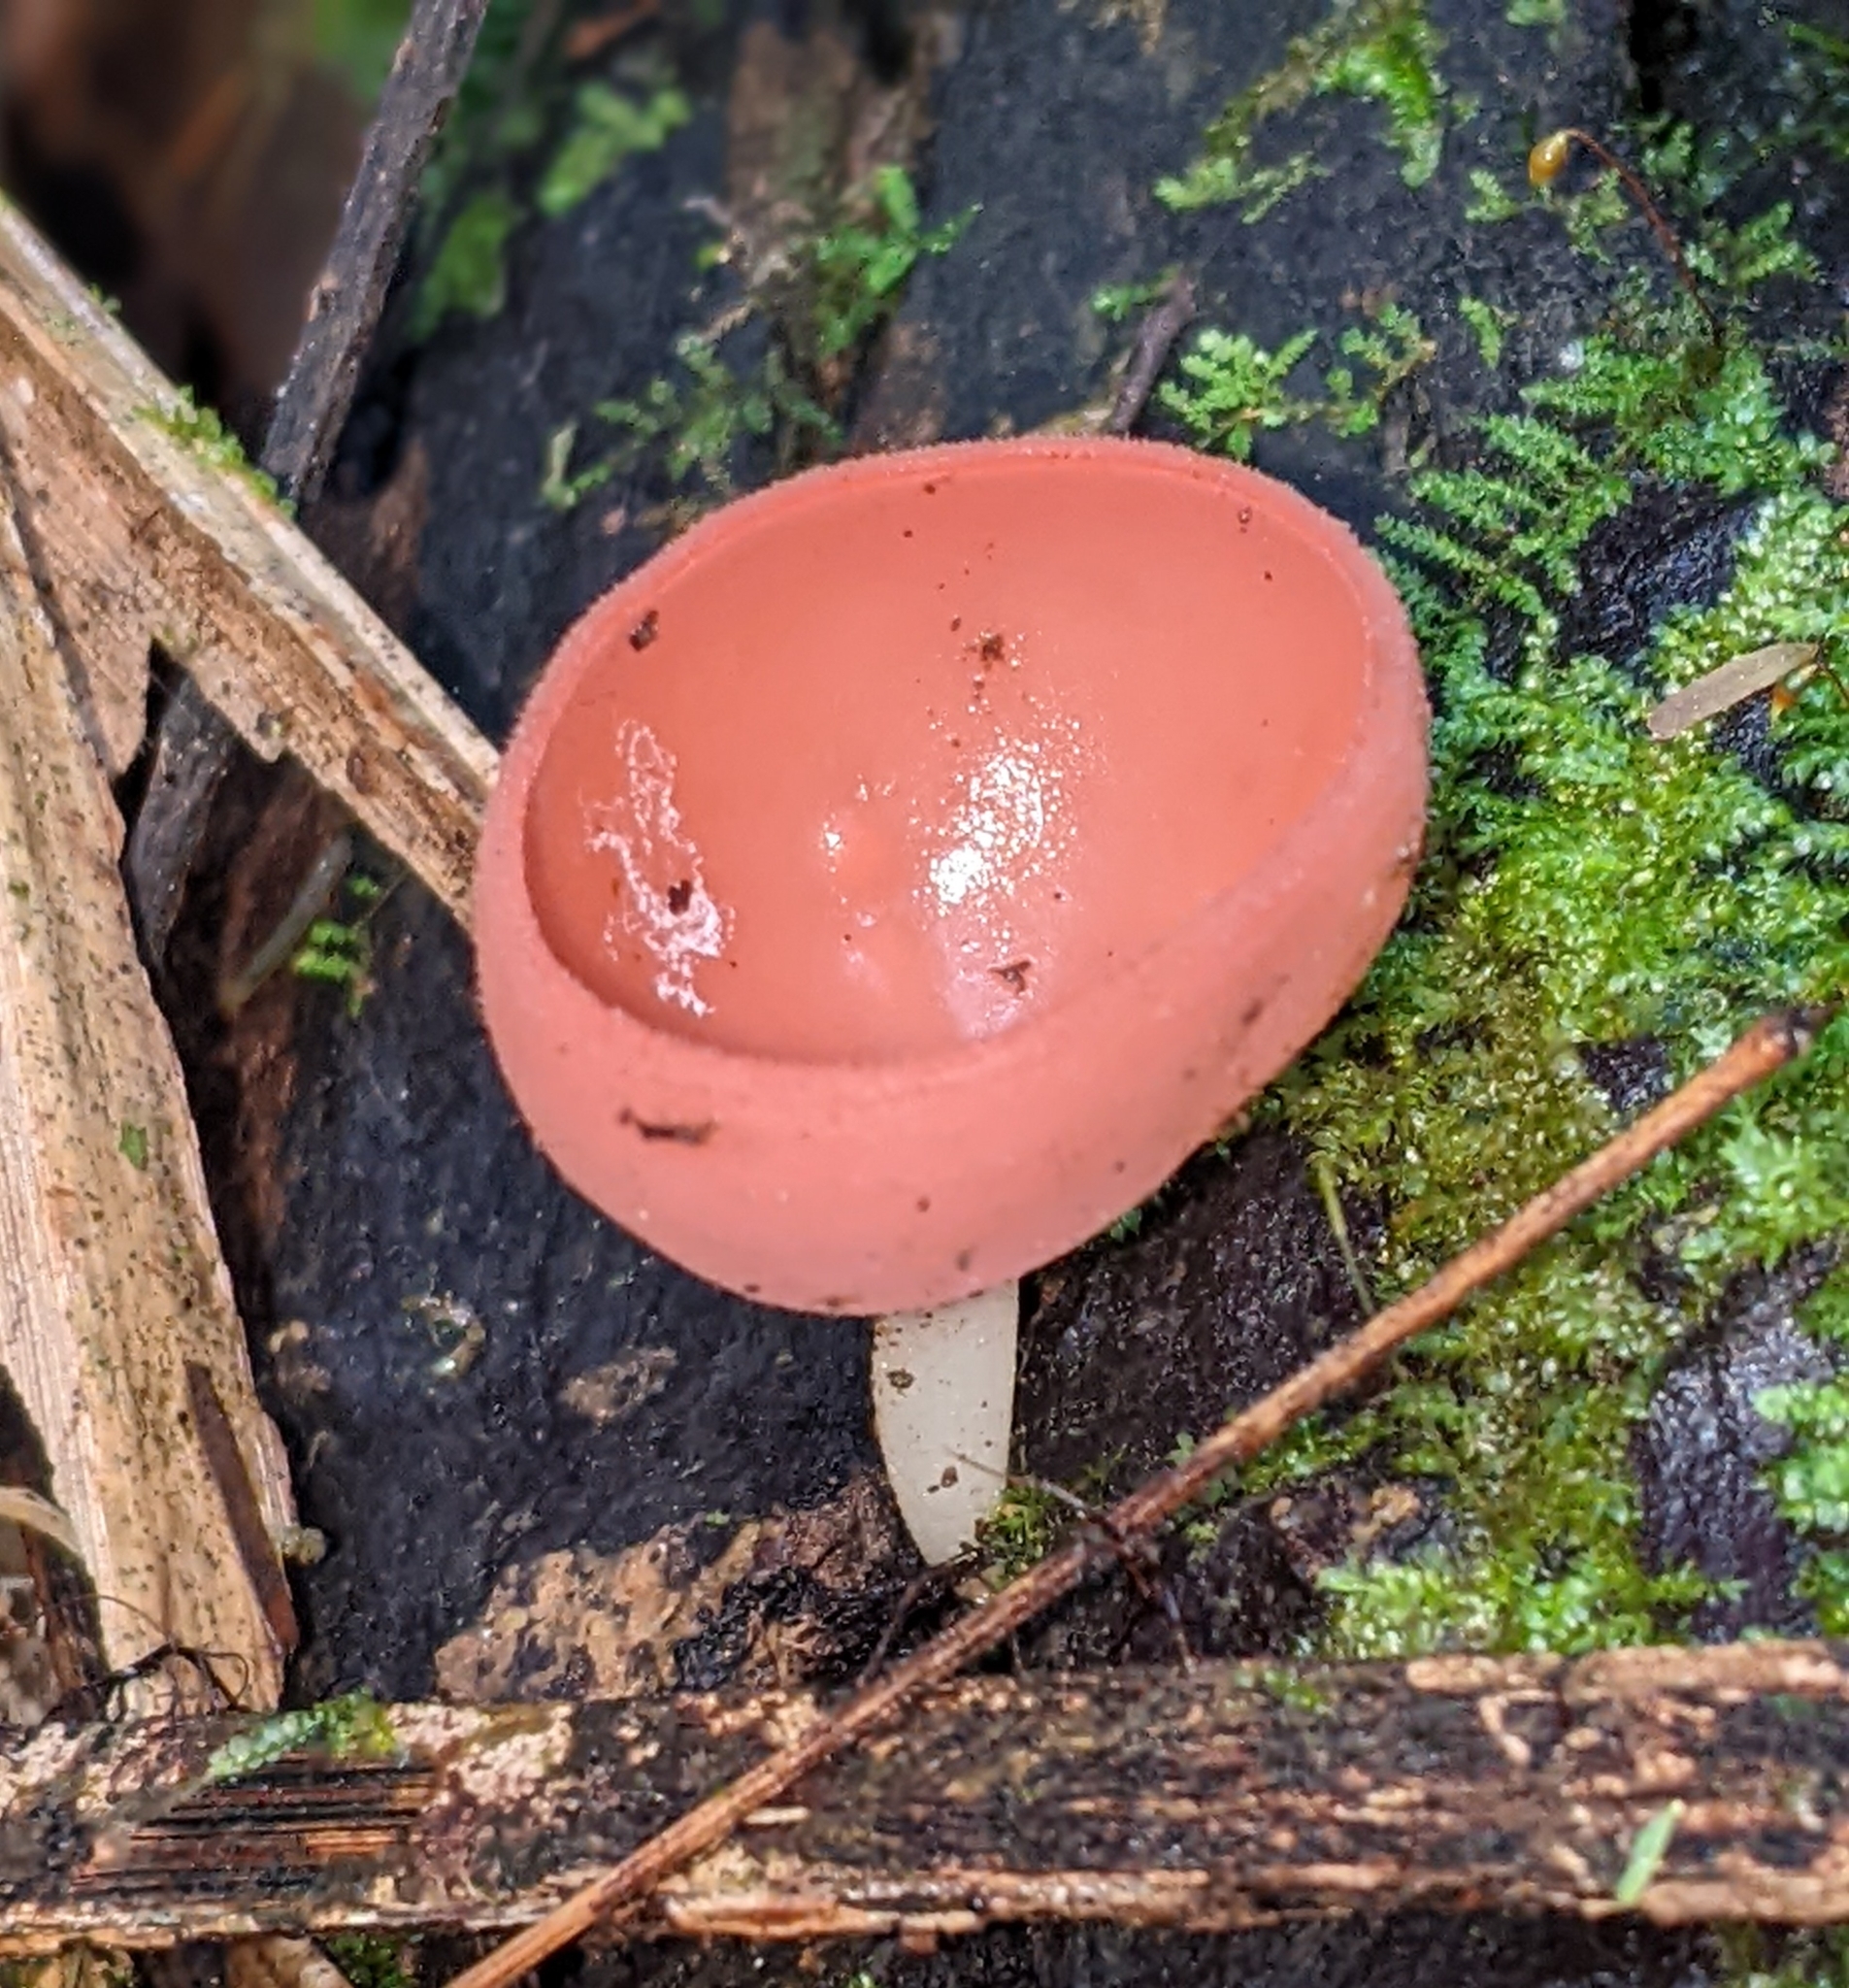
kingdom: Fungi
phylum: Ascomycota
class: Pezizomycetes
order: Pezizales
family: Sarcoscyphaceae
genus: Cookeina
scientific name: Cookeina speciosa
